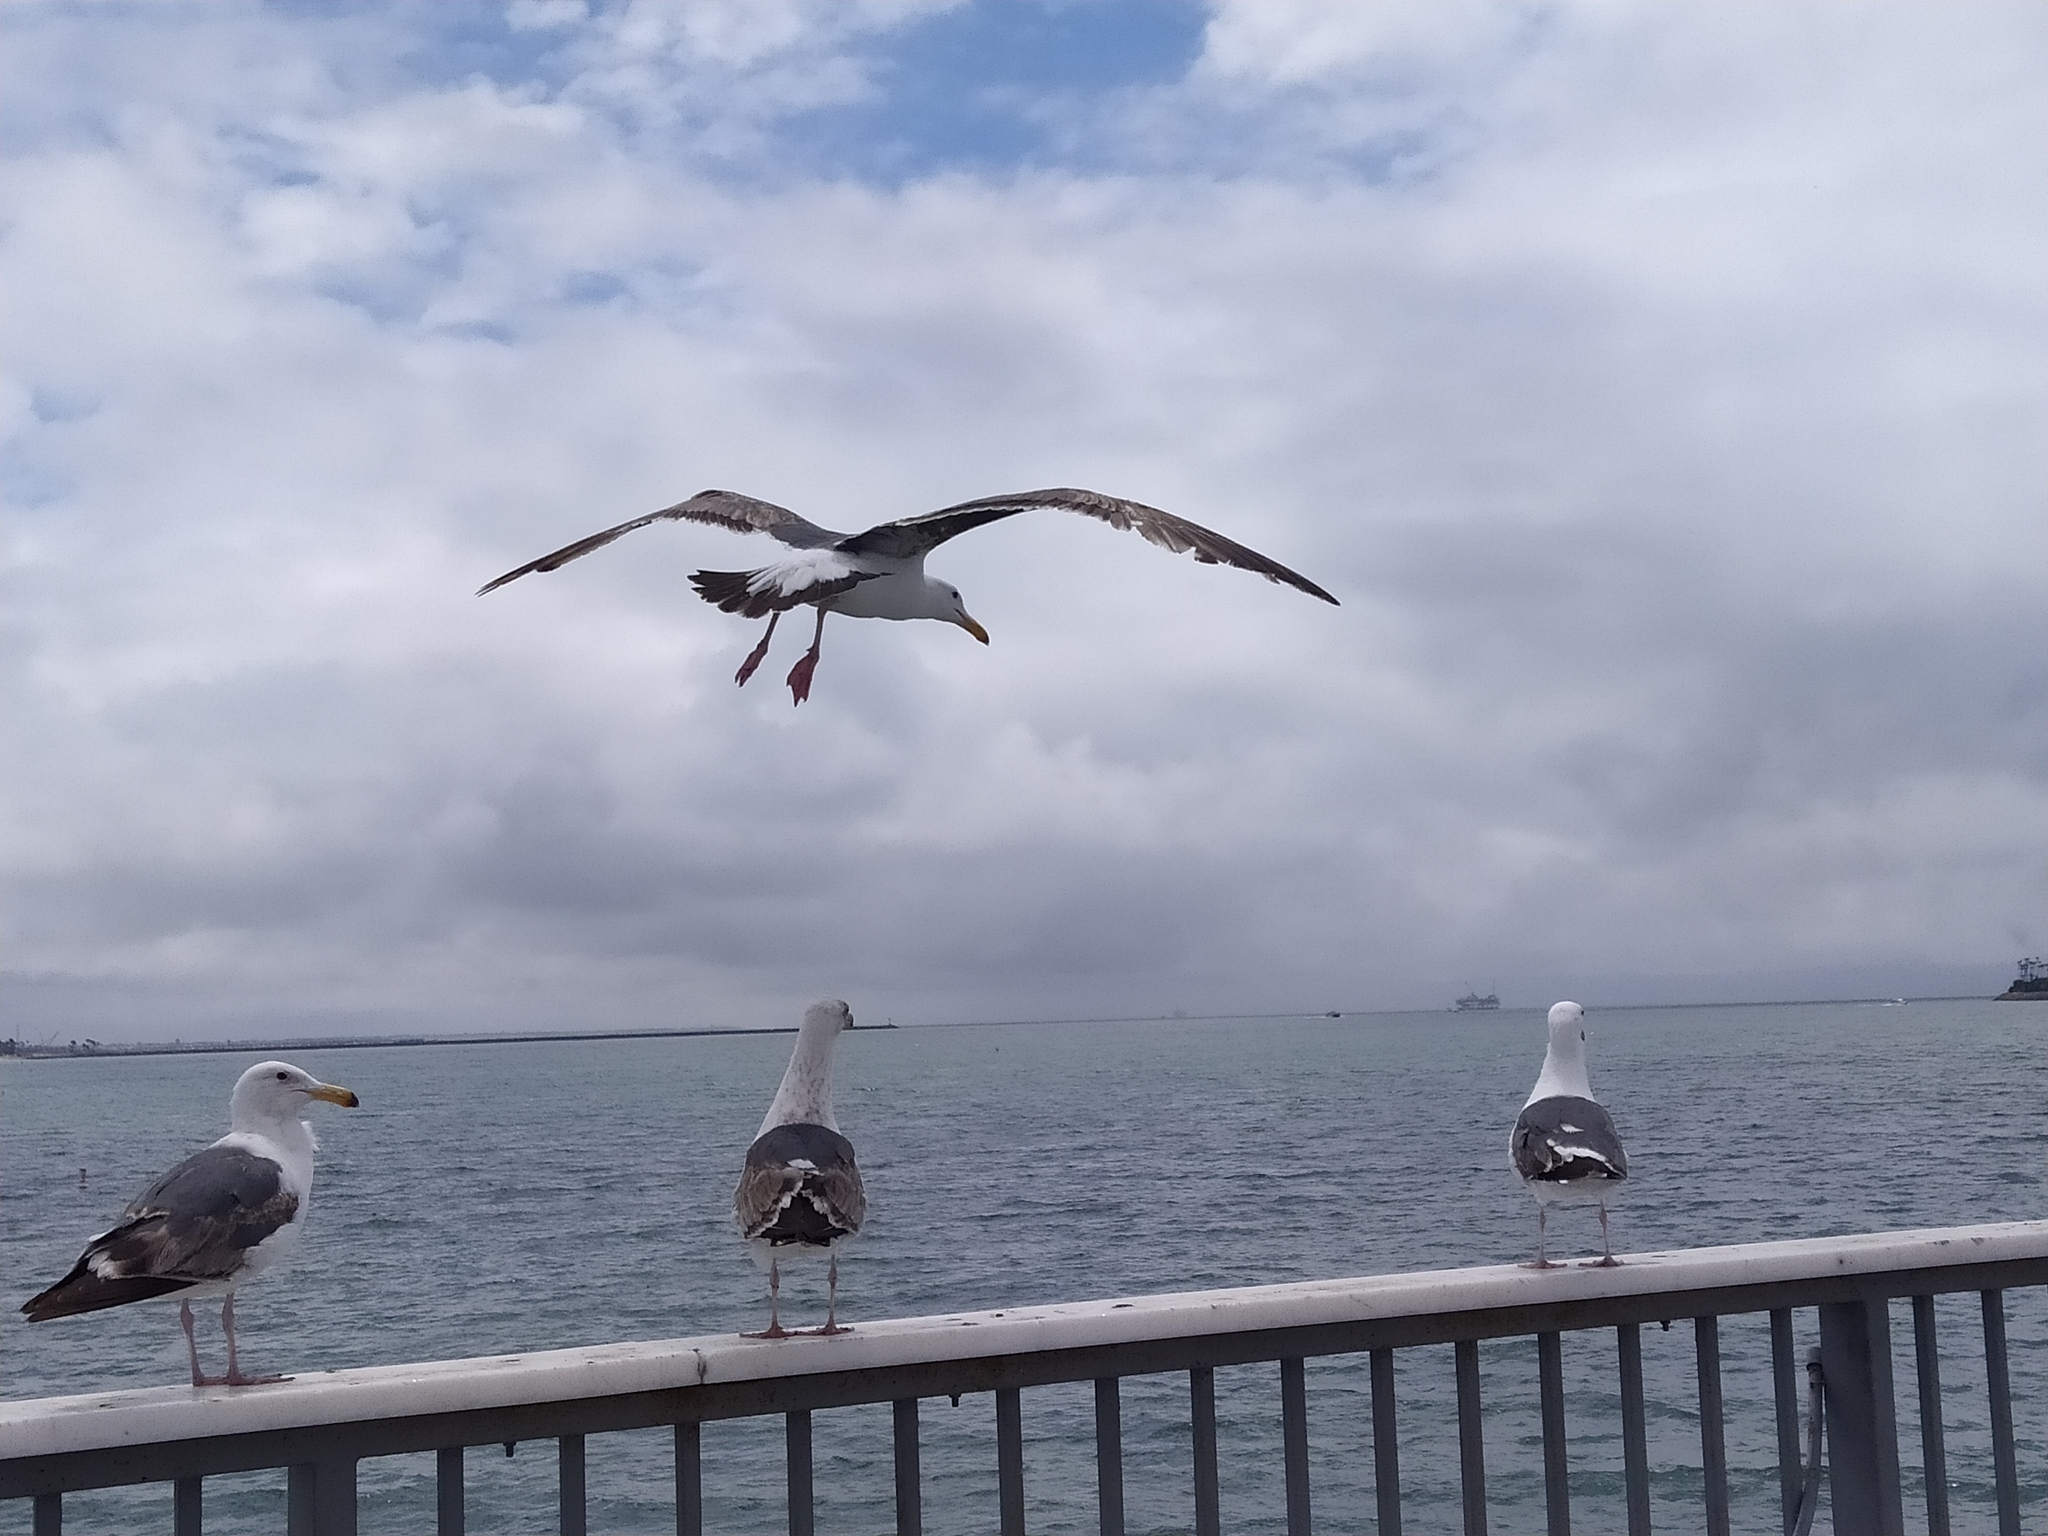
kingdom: Animalia
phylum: Chordata
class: Aves
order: Charadriiformes
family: Laridae
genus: Larus
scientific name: Larus occidentalis
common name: Western gull
